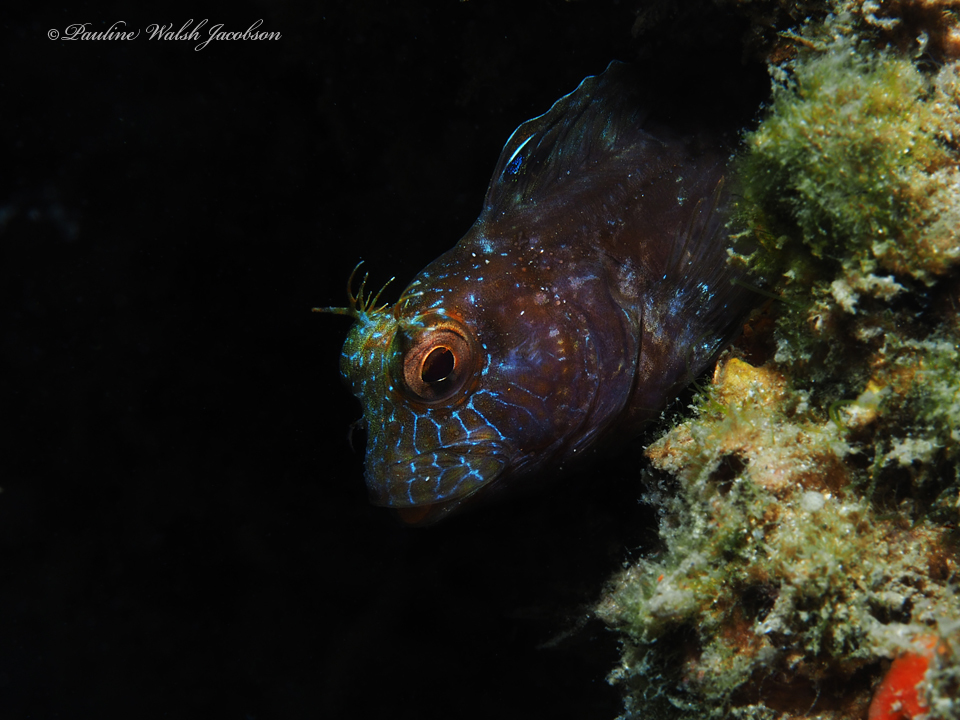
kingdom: Animalia
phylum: Chordata
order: Perciformes
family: Blenniidae
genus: Parablennius
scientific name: Parablennius marmoreus
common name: Seaweed blenny
